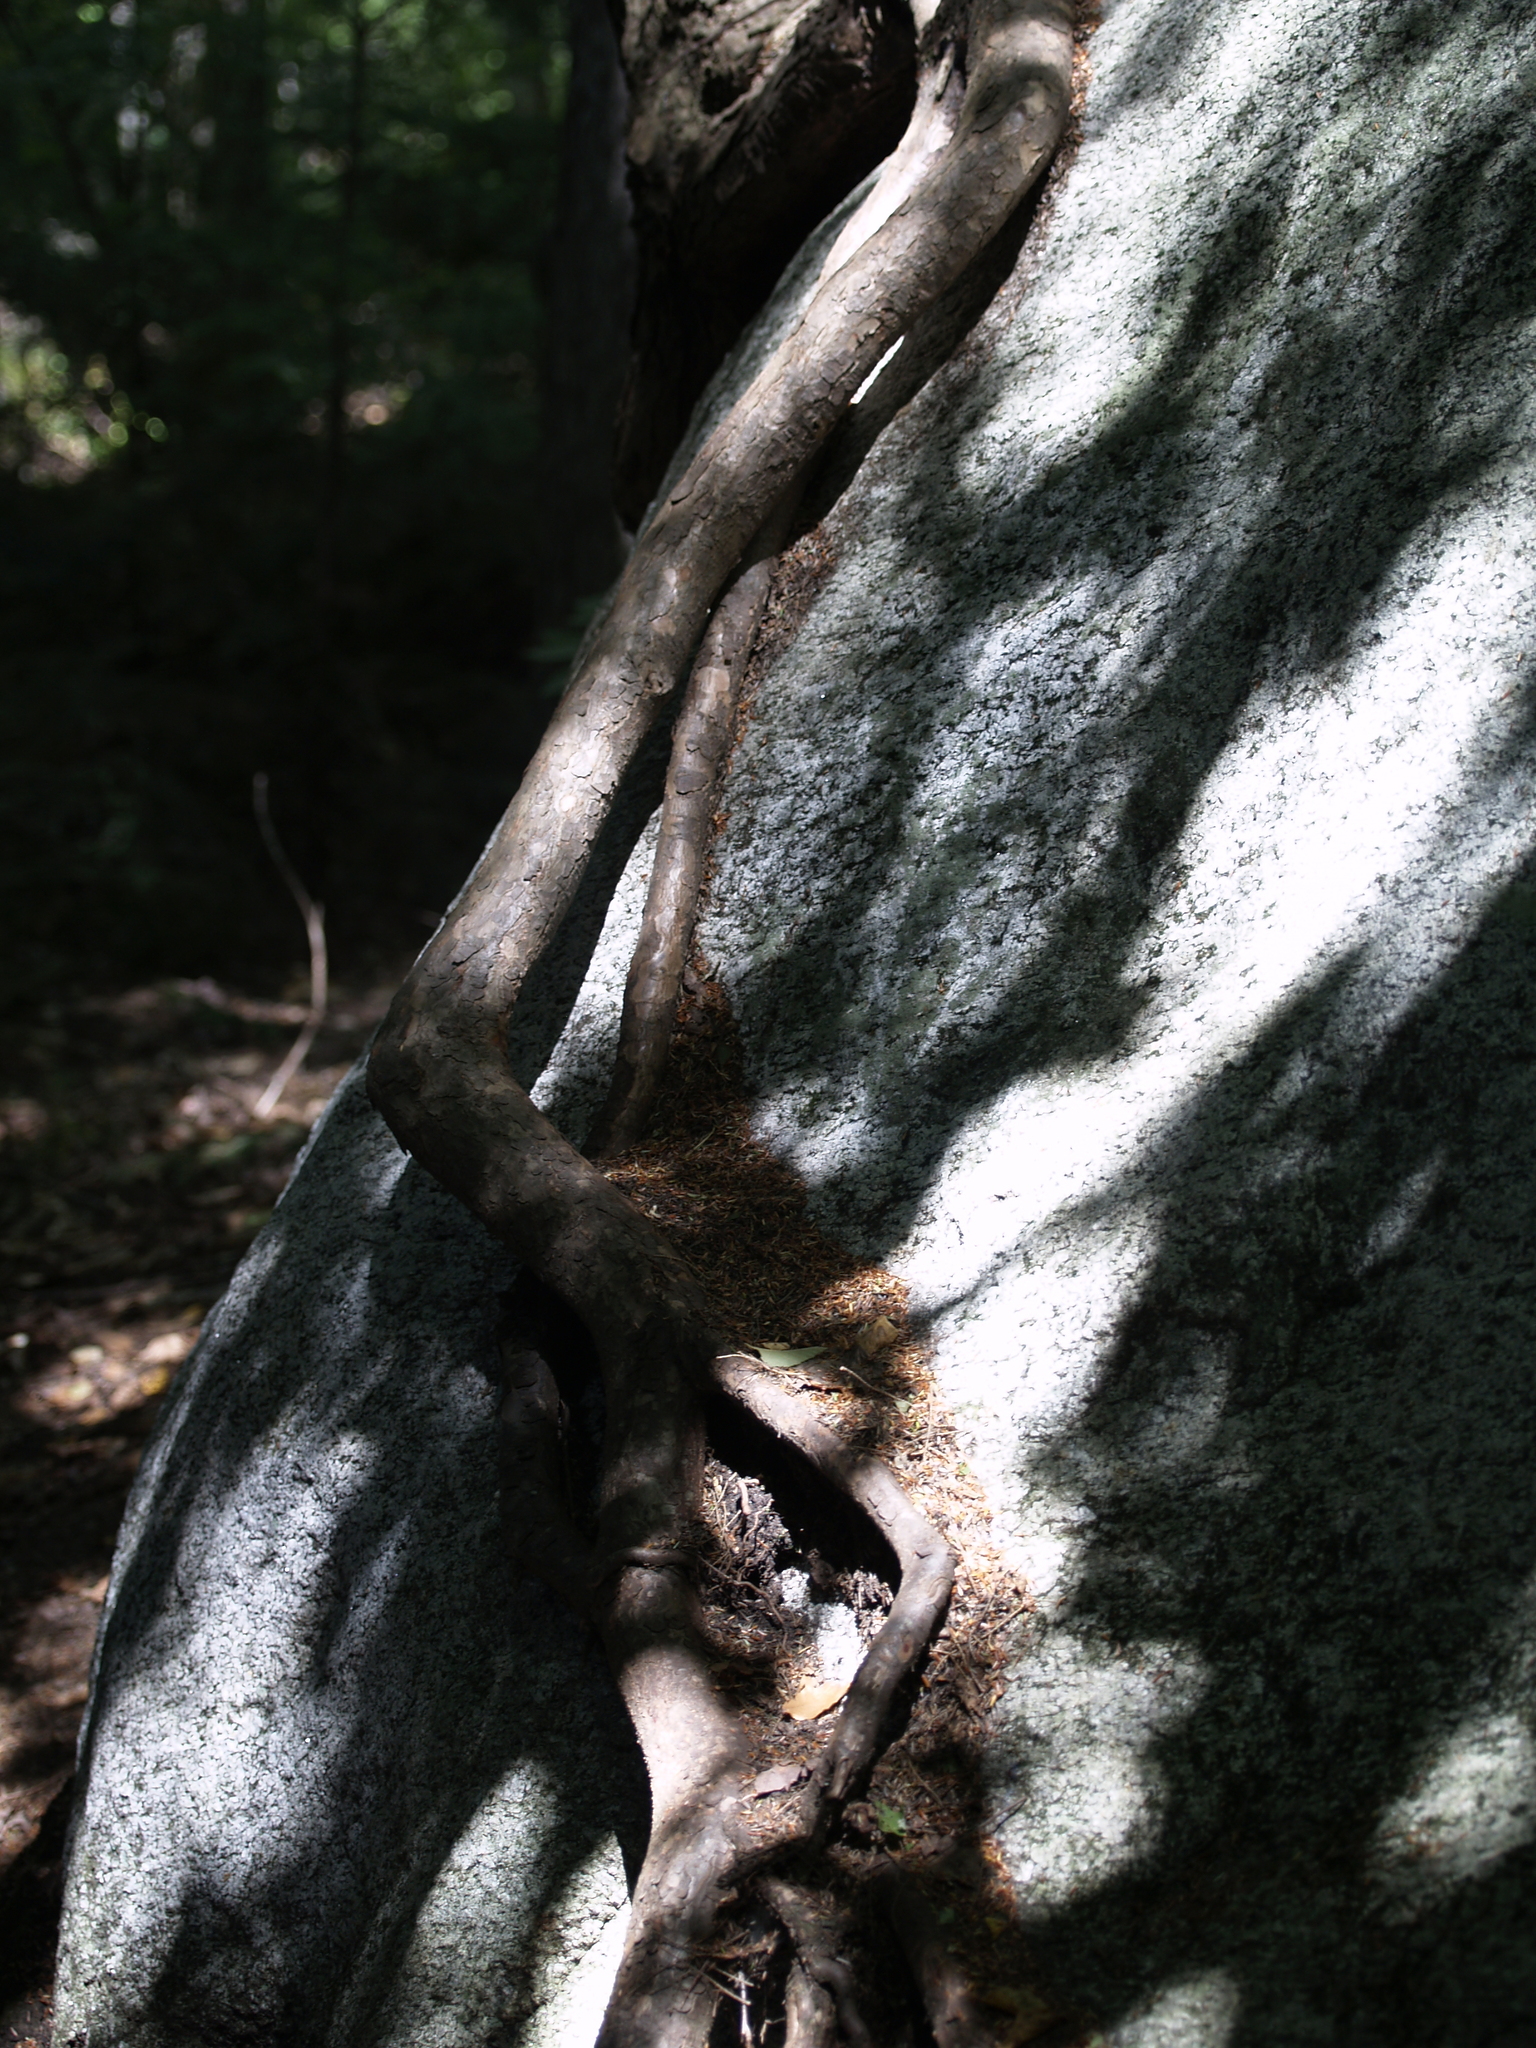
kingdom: Plantae
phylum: Tracheophyta
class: Pinopsida
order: Pinales
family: Pinaceae
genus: Tsuga
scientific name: Tsuga canadensis
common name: Eastern hemlock
